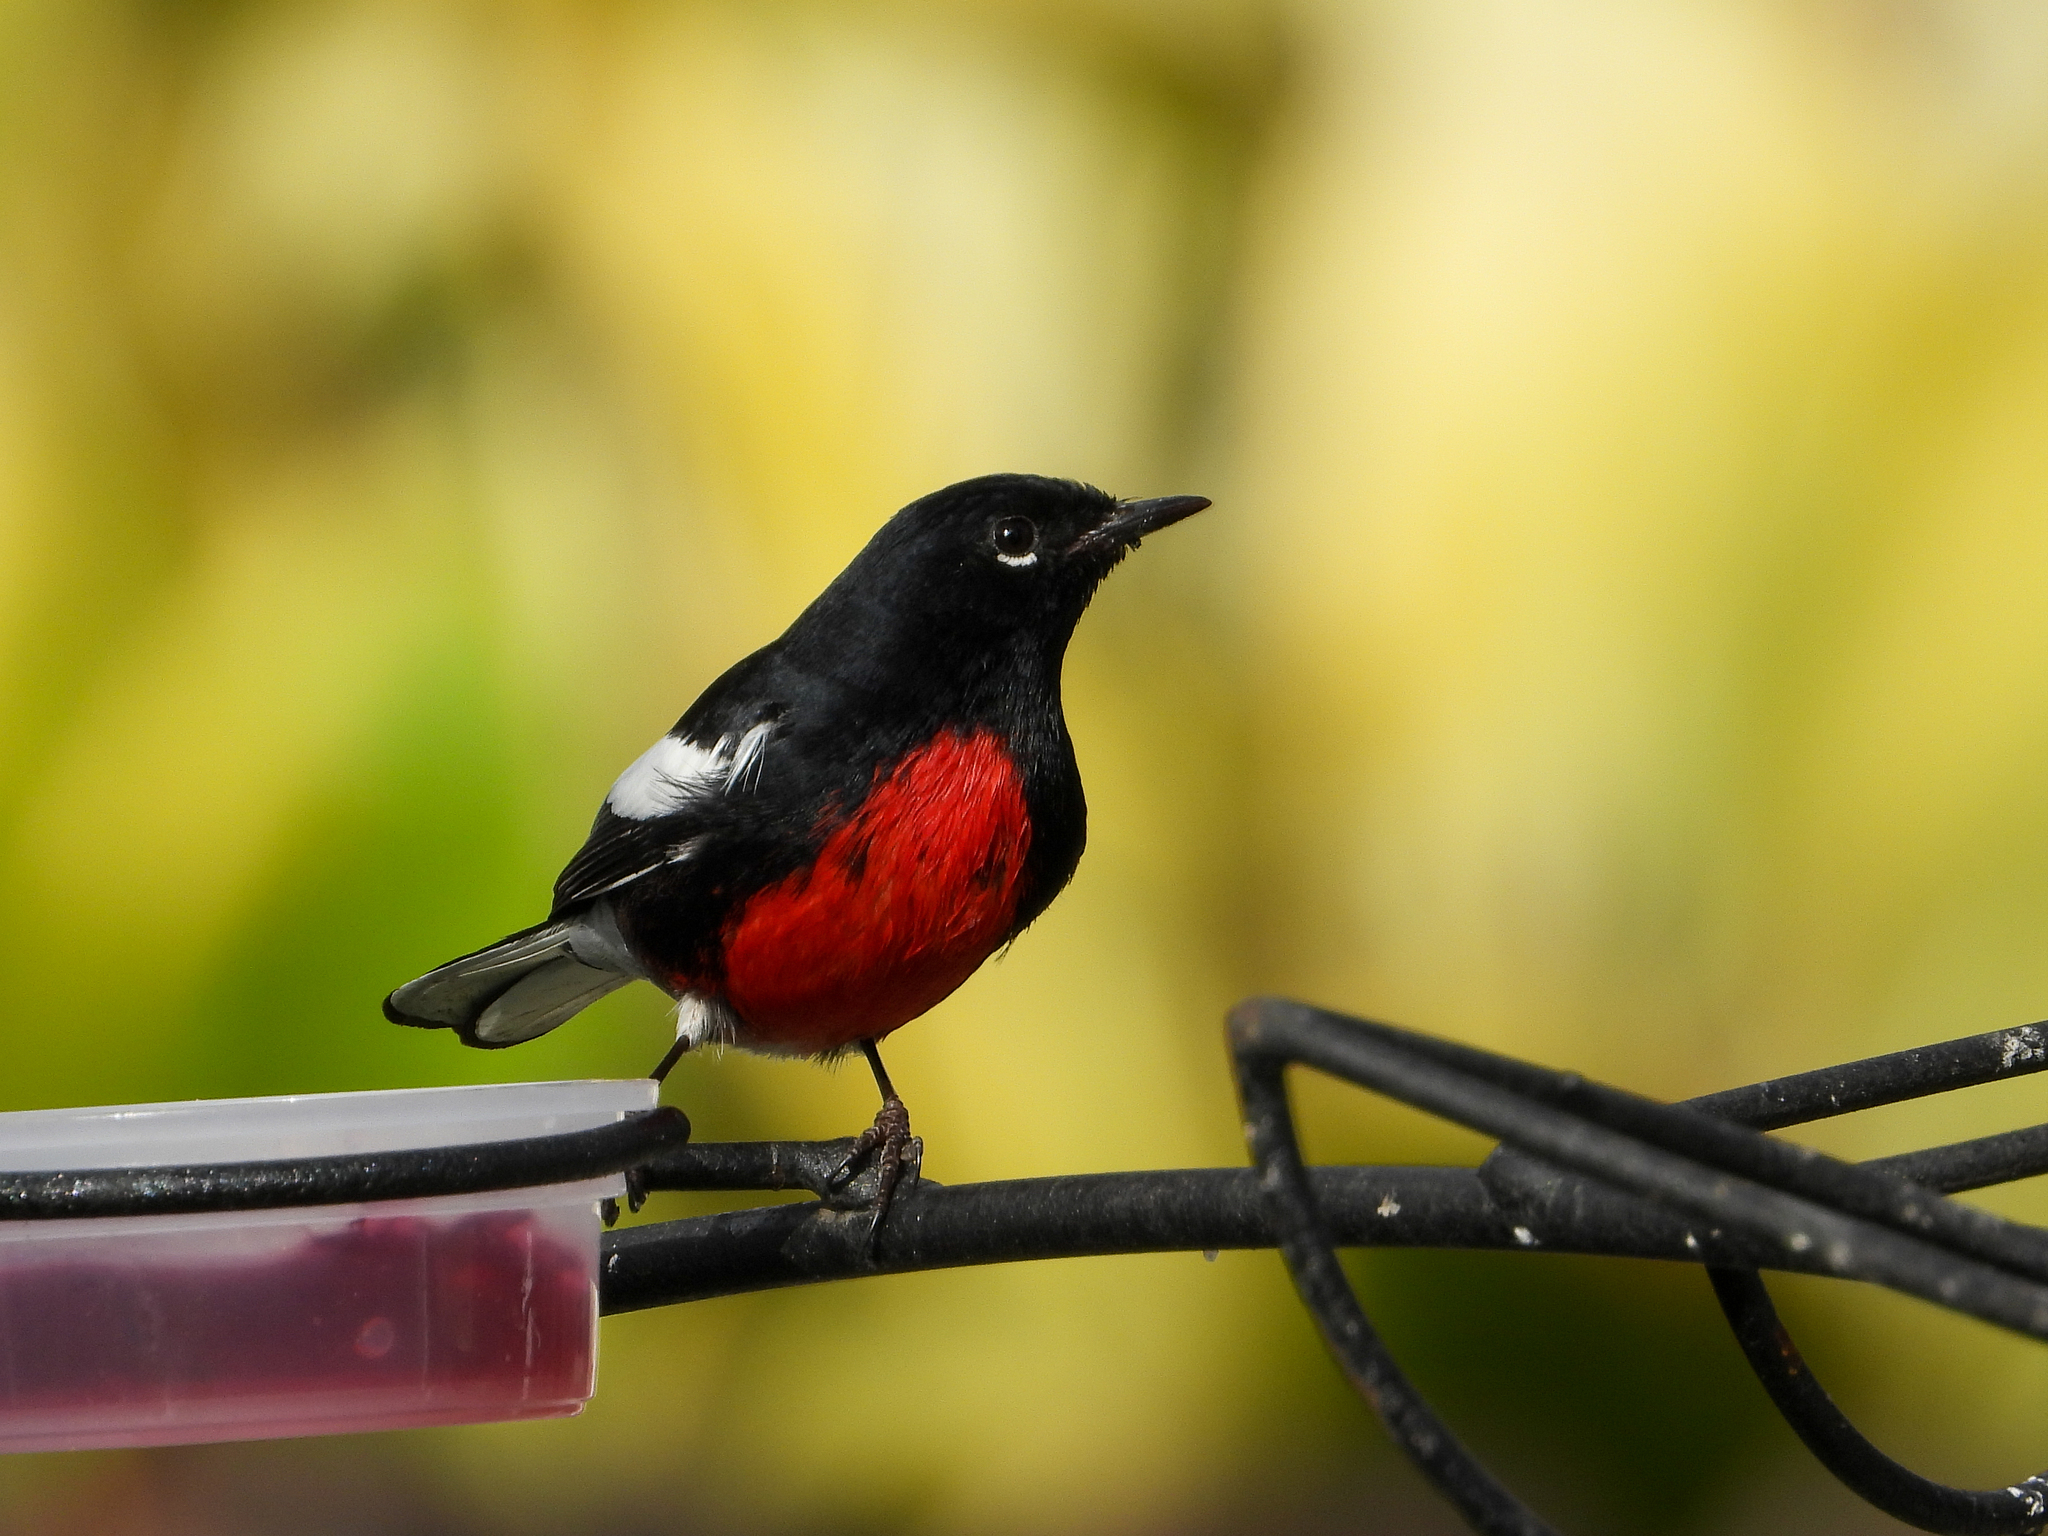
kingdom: Animalia
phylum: Chordata
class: Aves
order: Passeriformes
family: Parulidae
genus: Myioborus
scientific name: Myioborus pictus
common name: Painted whitestart
